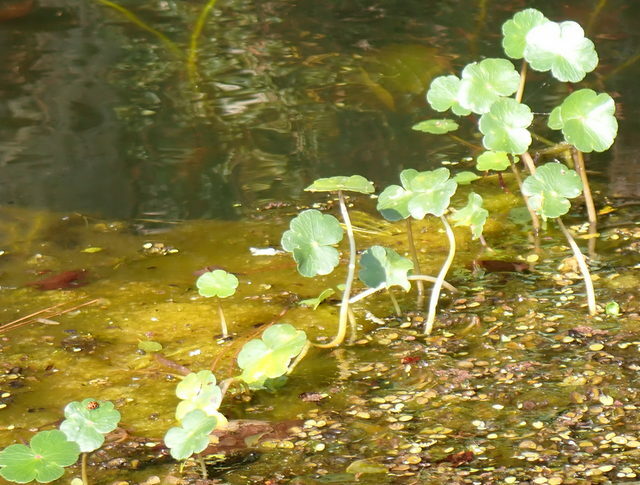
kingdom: Plantae
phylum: Tracheophyta
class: Magnoliopsida
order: Apiales
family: Araliaceae
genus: Hydrocotyle
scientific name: Hydrocotyle ranunculoides
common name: Floating pennywort
